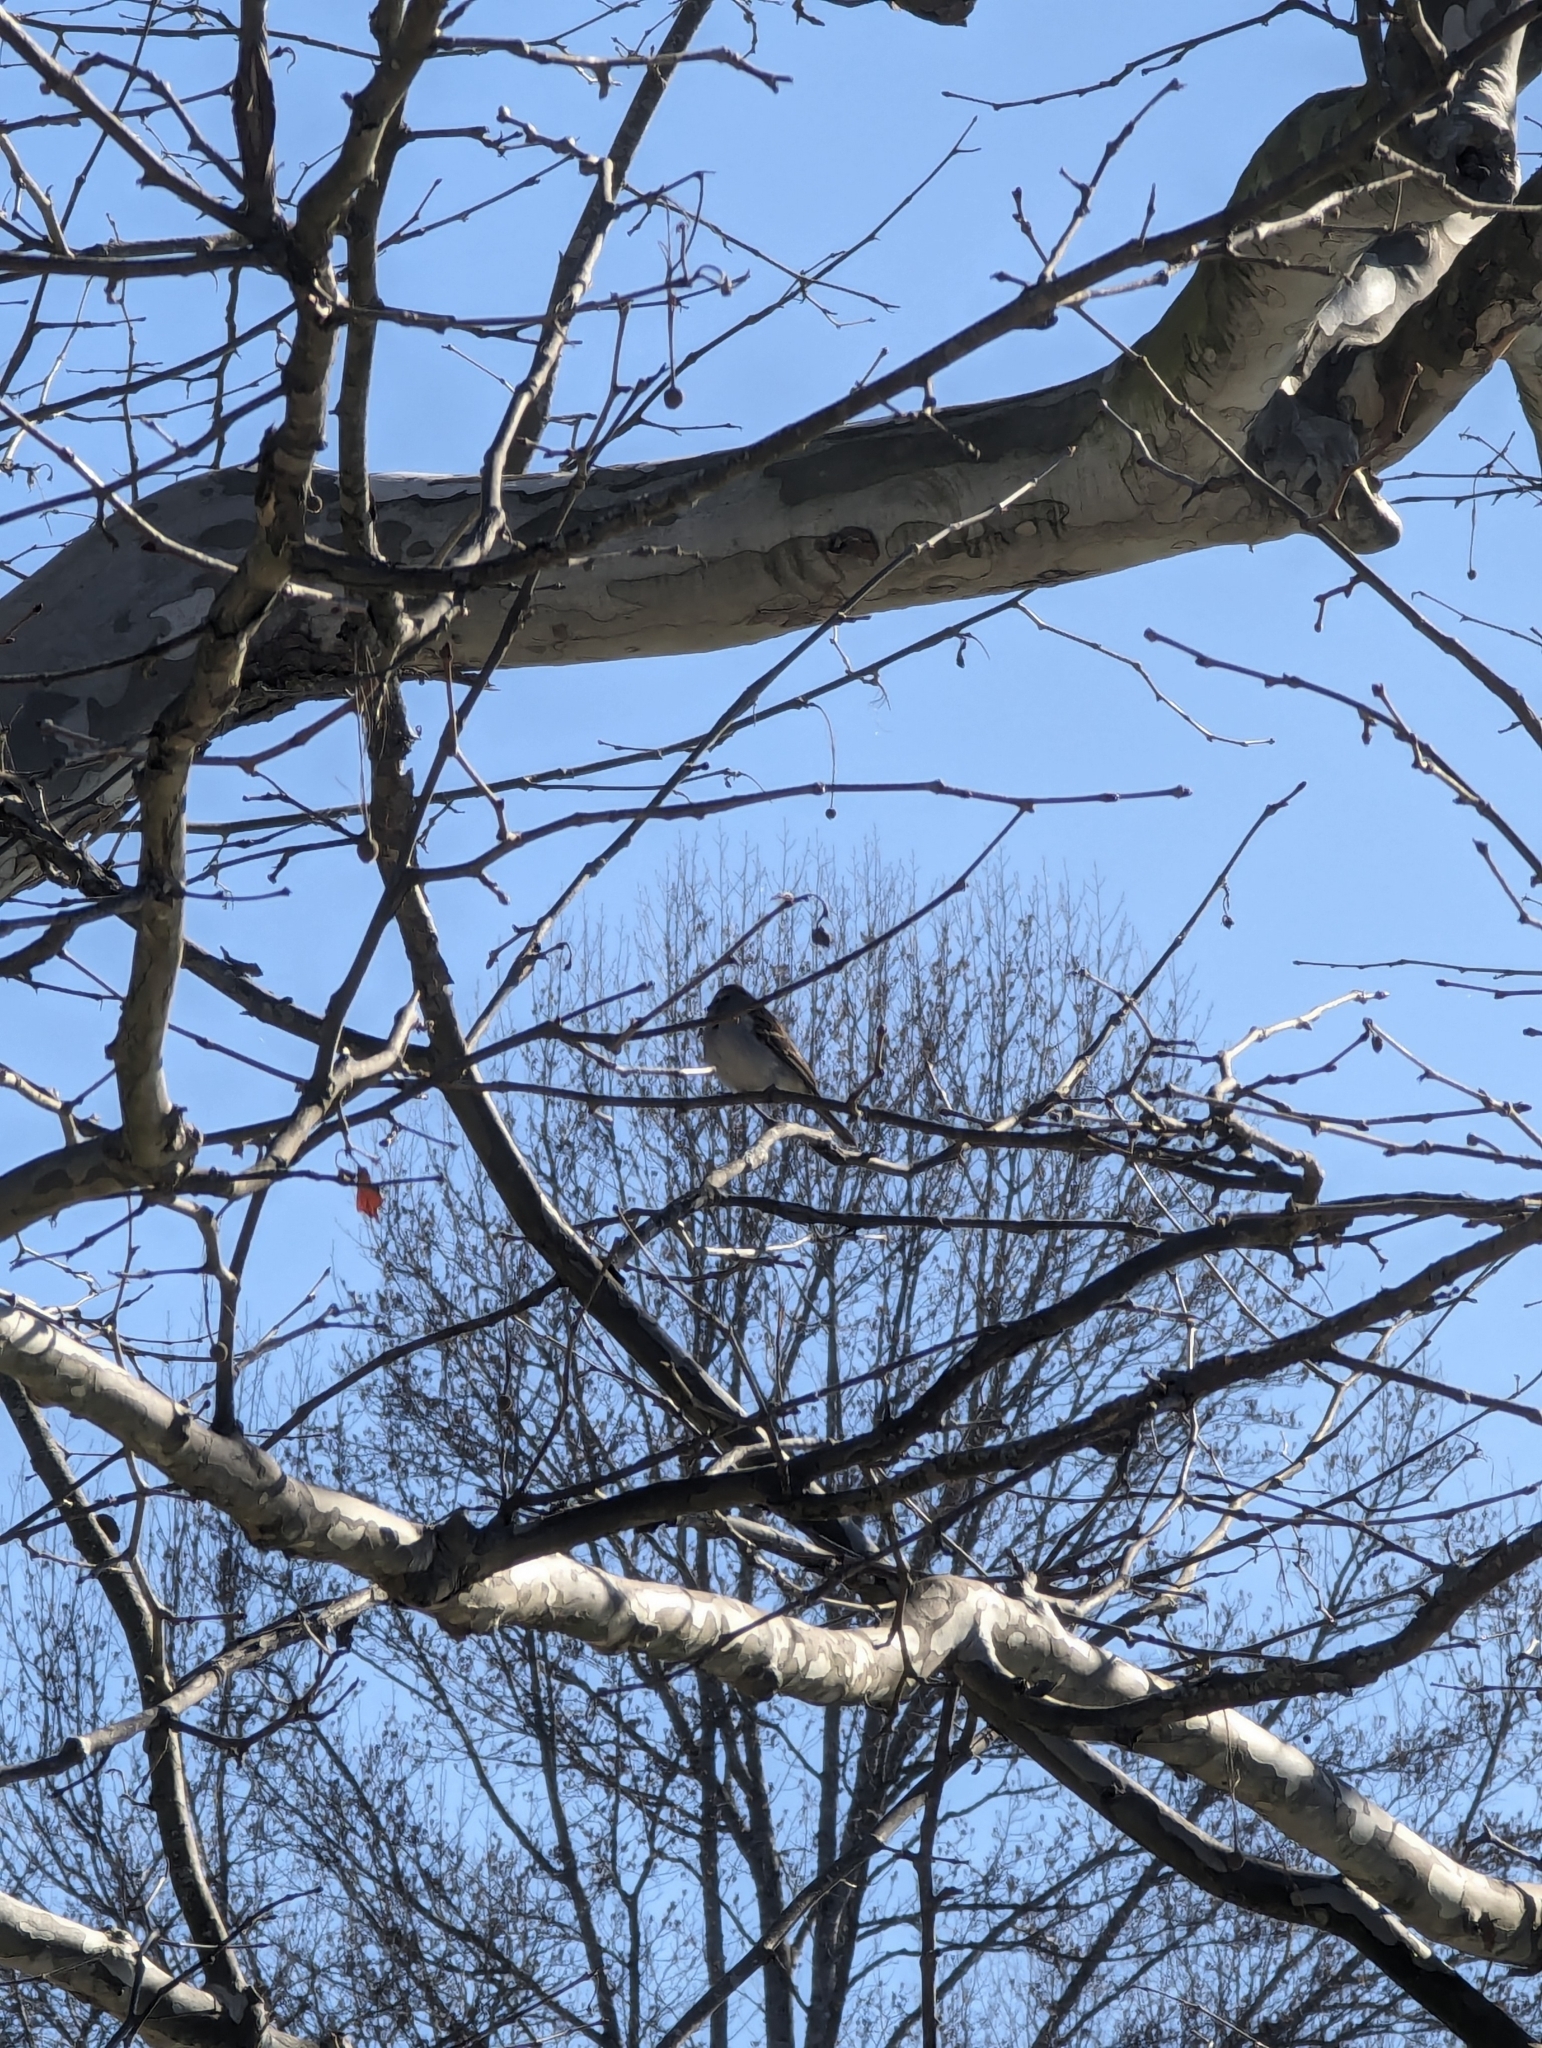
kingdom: Animalia
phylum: Chordata
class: Aves
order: Passeriformes
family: Passerellidae
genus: Spizella
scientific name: Spizella passerina
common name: Chipping sparrow
